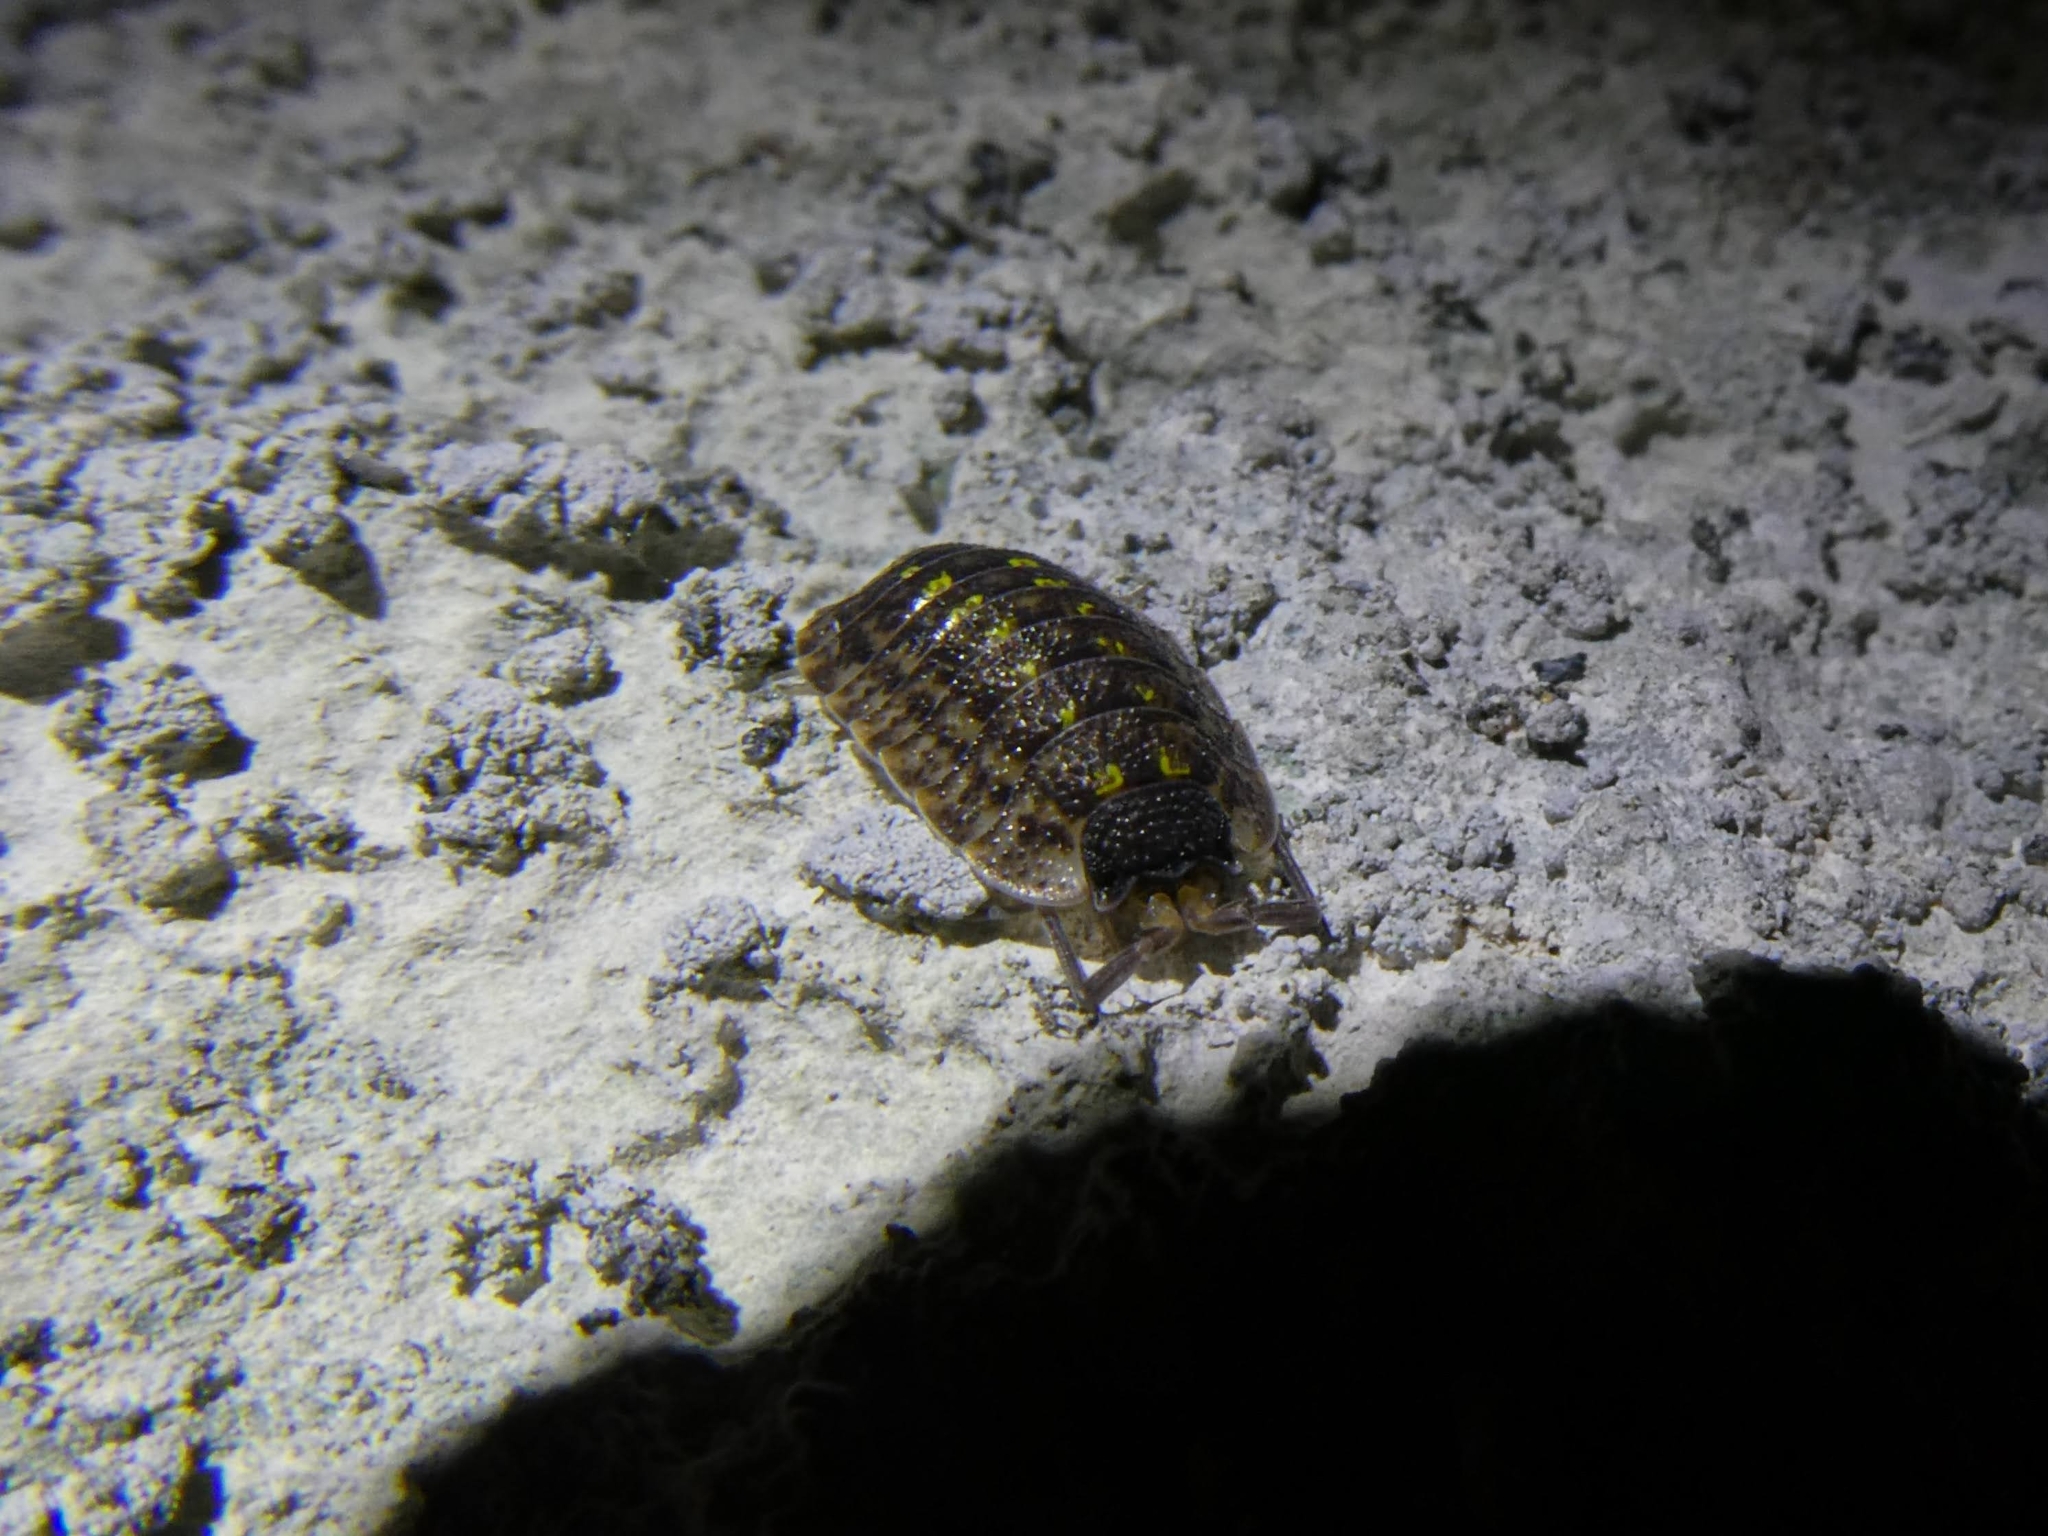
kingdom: Animalia
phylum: Arthropoda
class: Malacostraca
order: Isopoda
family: Porcellionidae
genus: Porcellio
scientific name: Porcellio spinicornis
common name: Painted woodlouse
